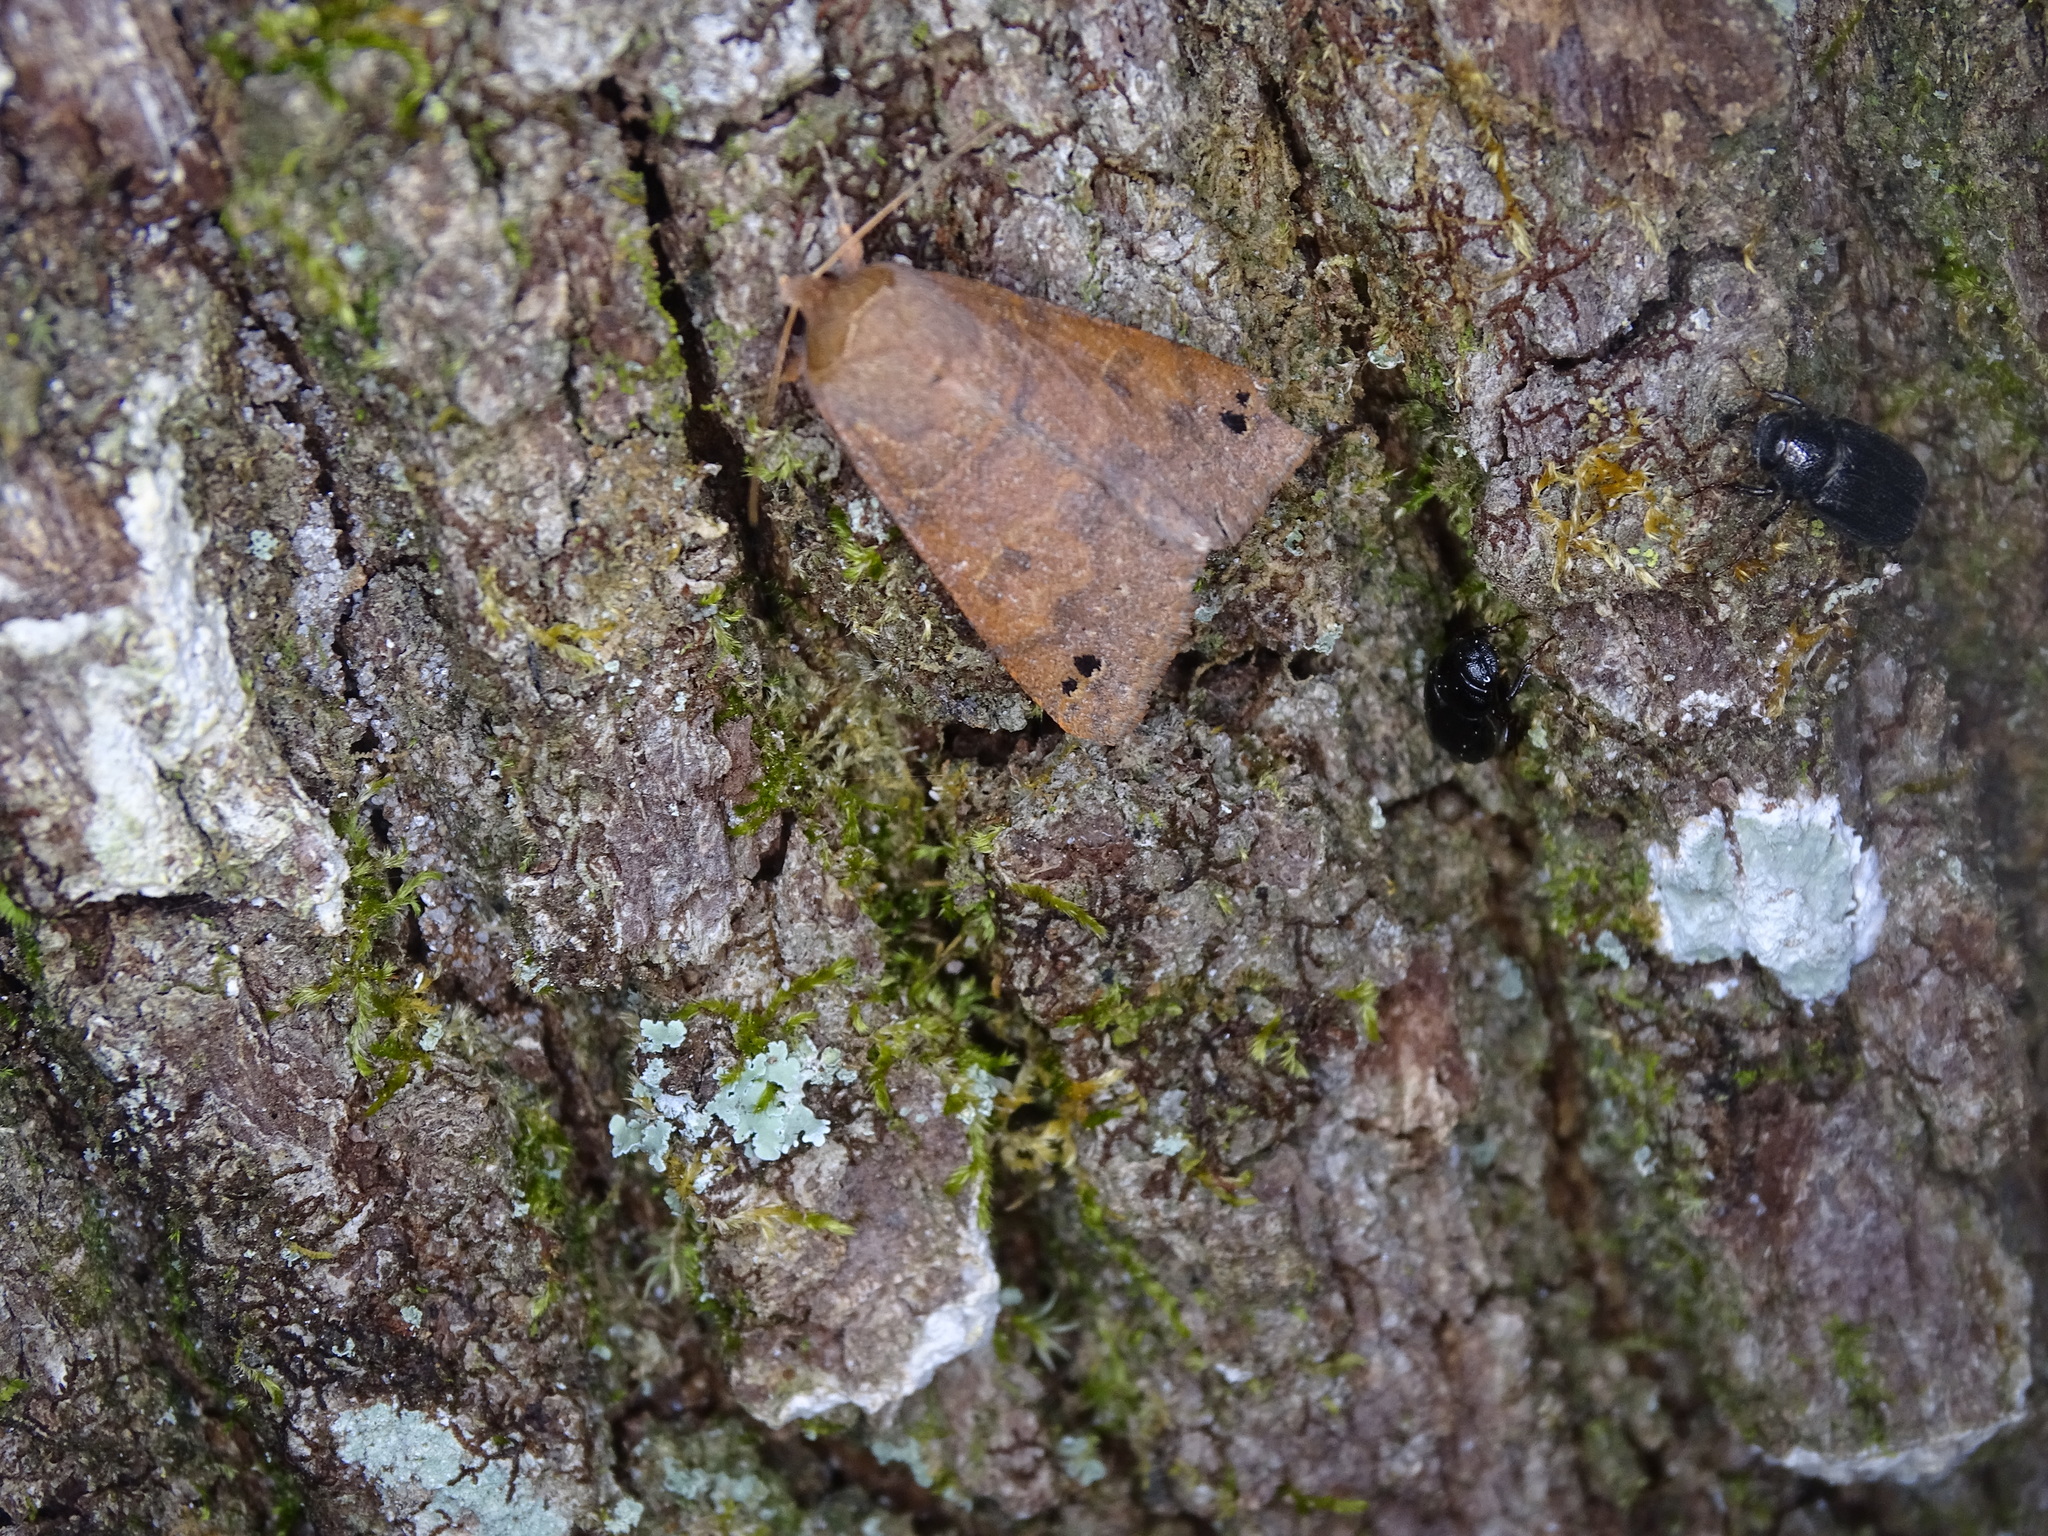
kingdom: Animalia
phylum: Arthropoda
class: Insecta
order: Lepidoptera
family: Erebidae
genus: Cissusa
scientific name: Cissusa spadix
